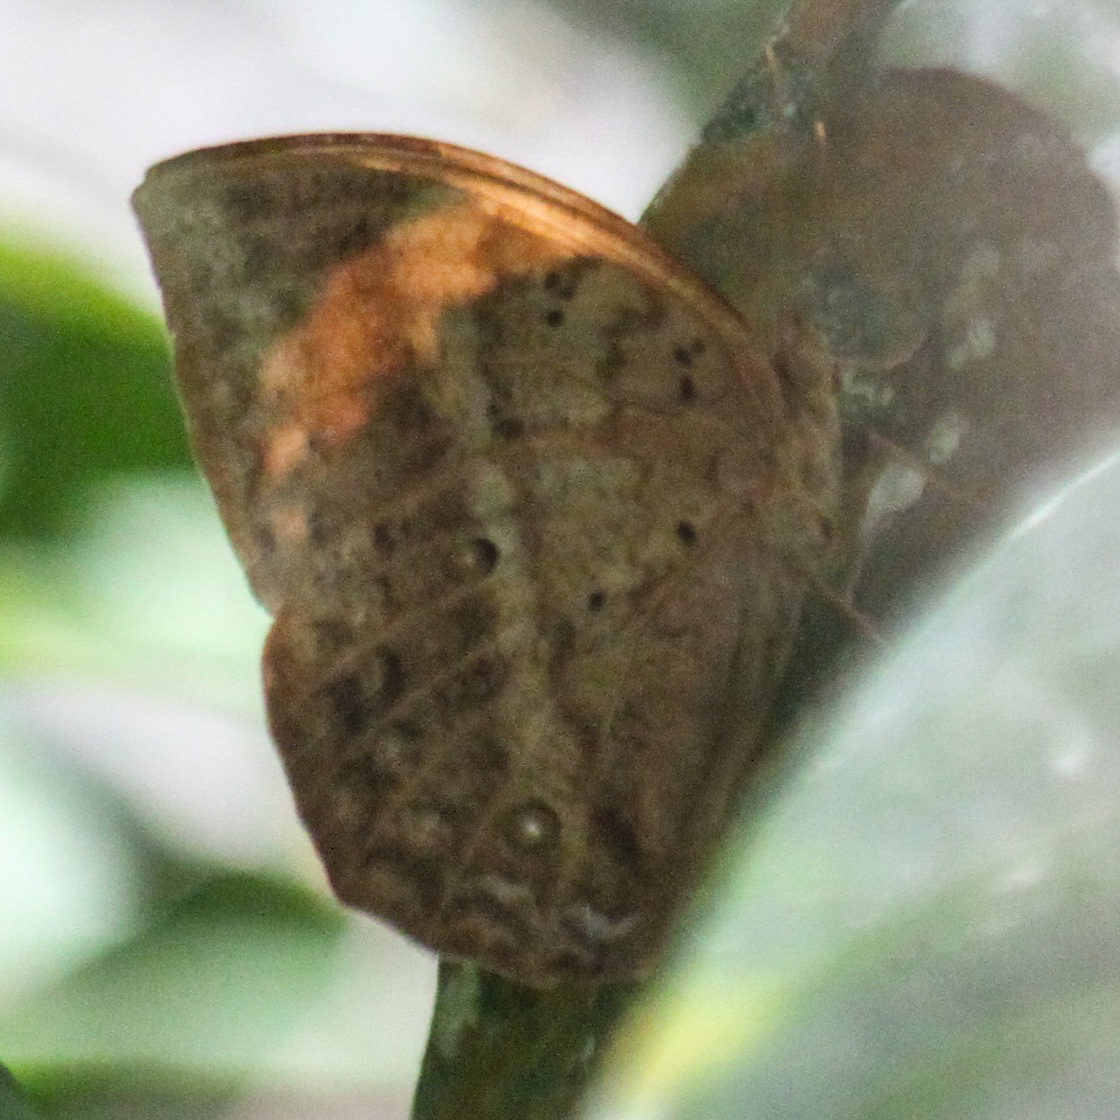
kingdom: Animalia
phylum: Arthropoda
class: Insecta
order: Lepidoptera
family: Nymphalidae
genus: Discophora
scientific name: Discophora timora
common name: Great duffer
